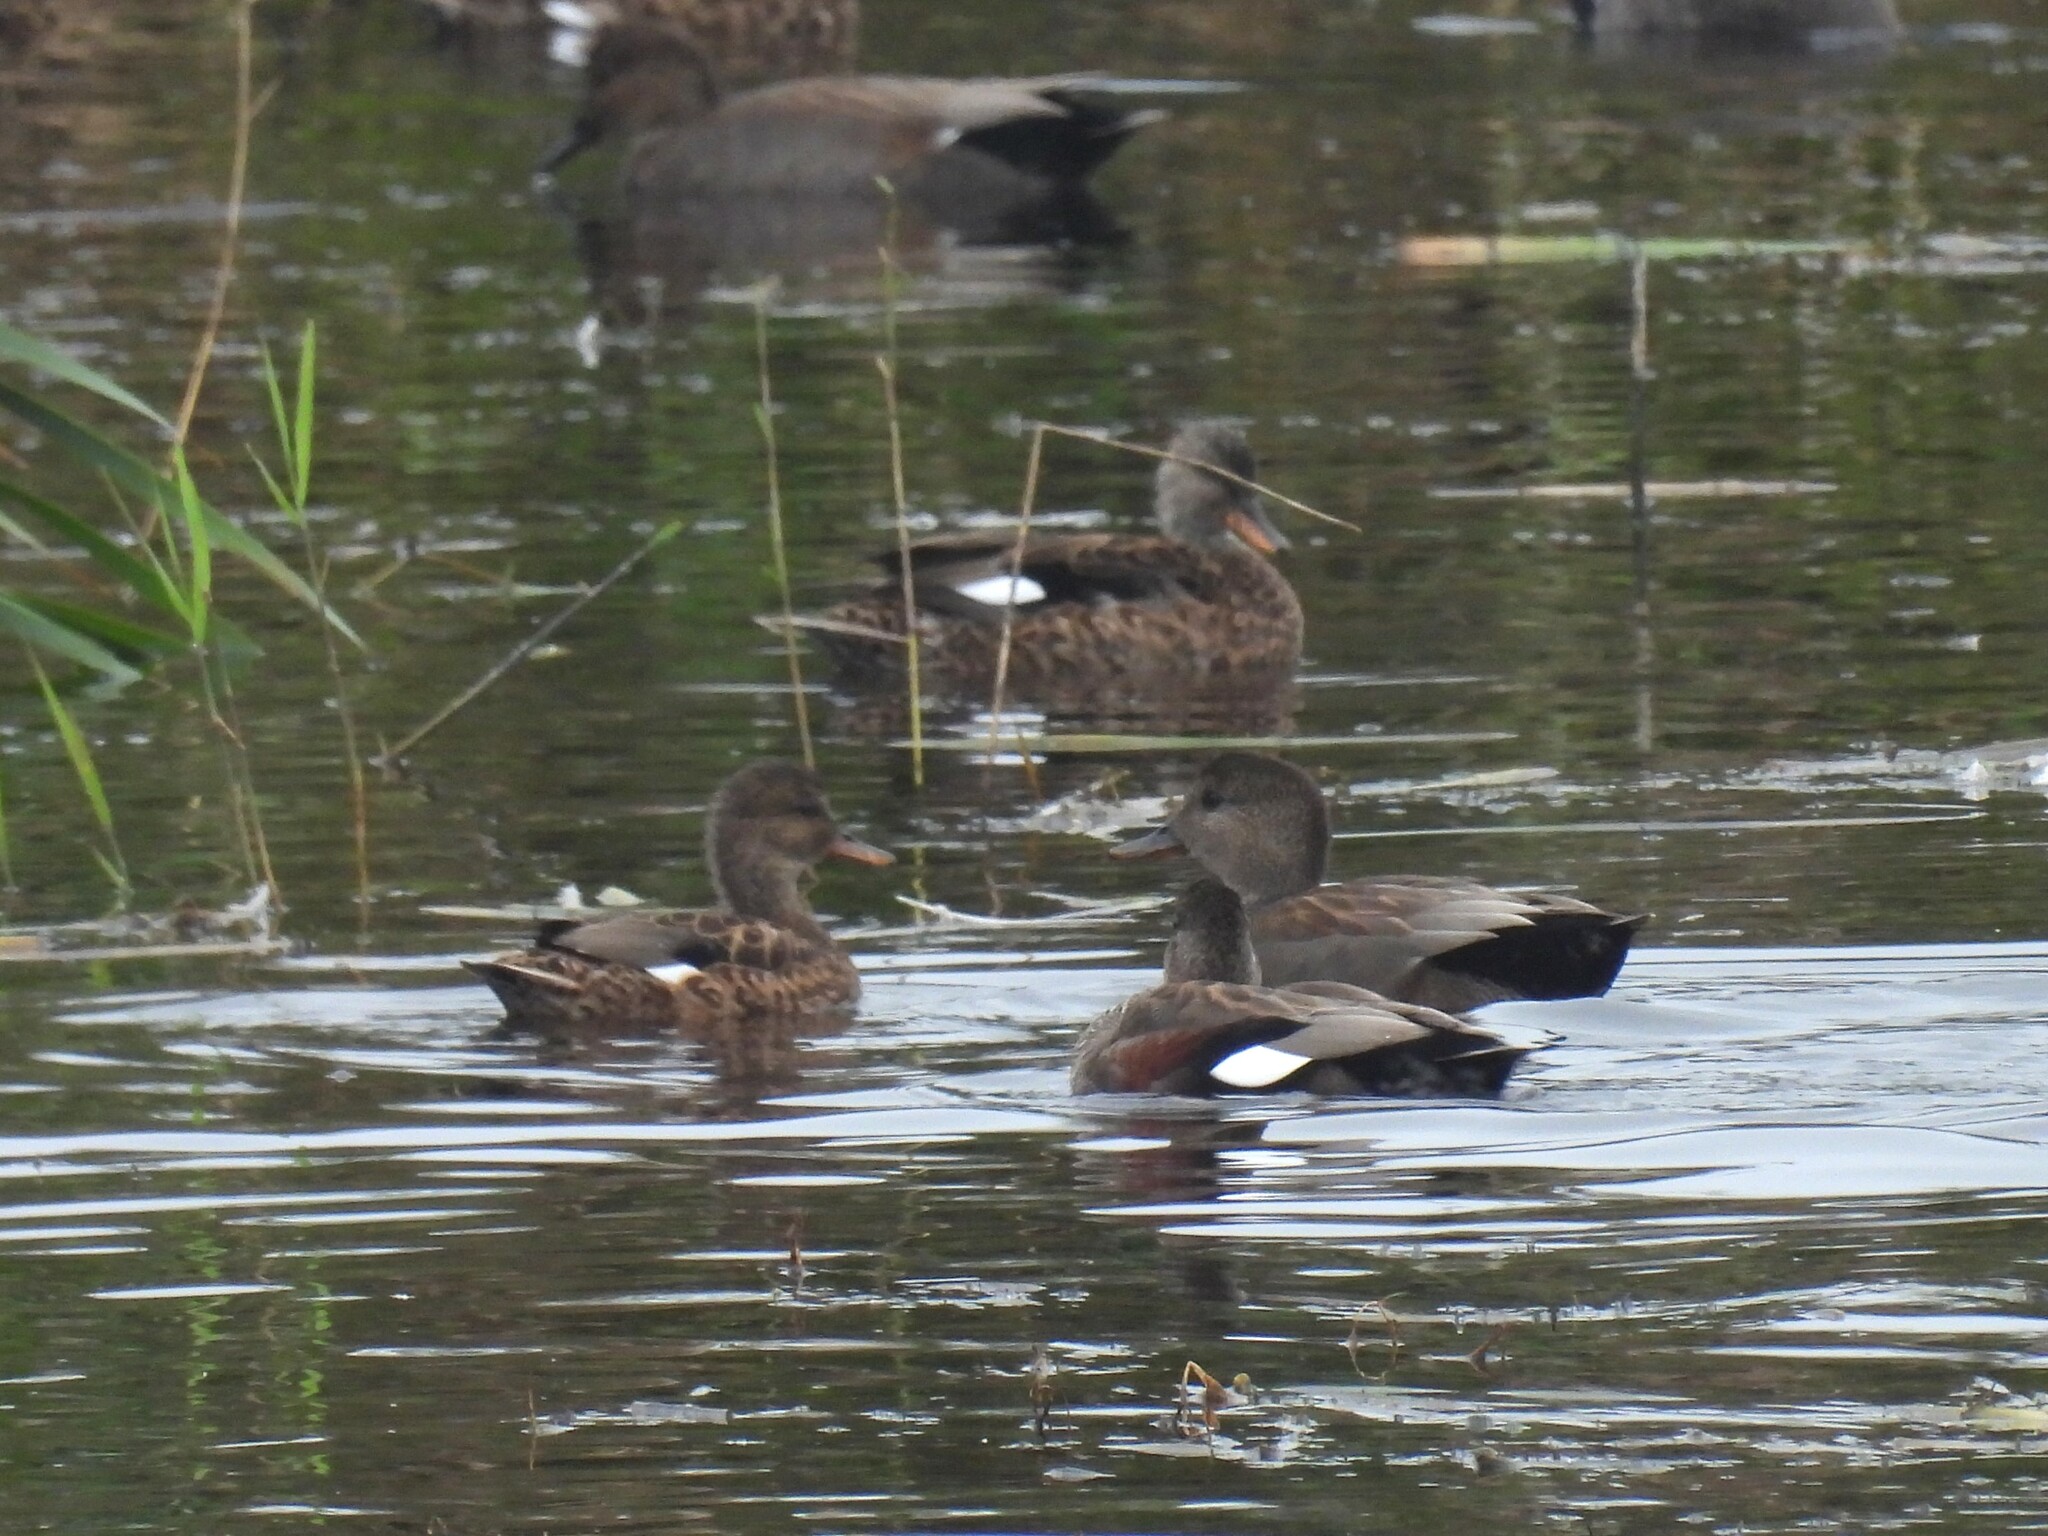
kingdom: Animalia
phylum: Chordata
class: Aves
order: Anseriformes
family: Anatidae
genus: Mareca
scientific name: Mareca strepera
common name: Gadwall
